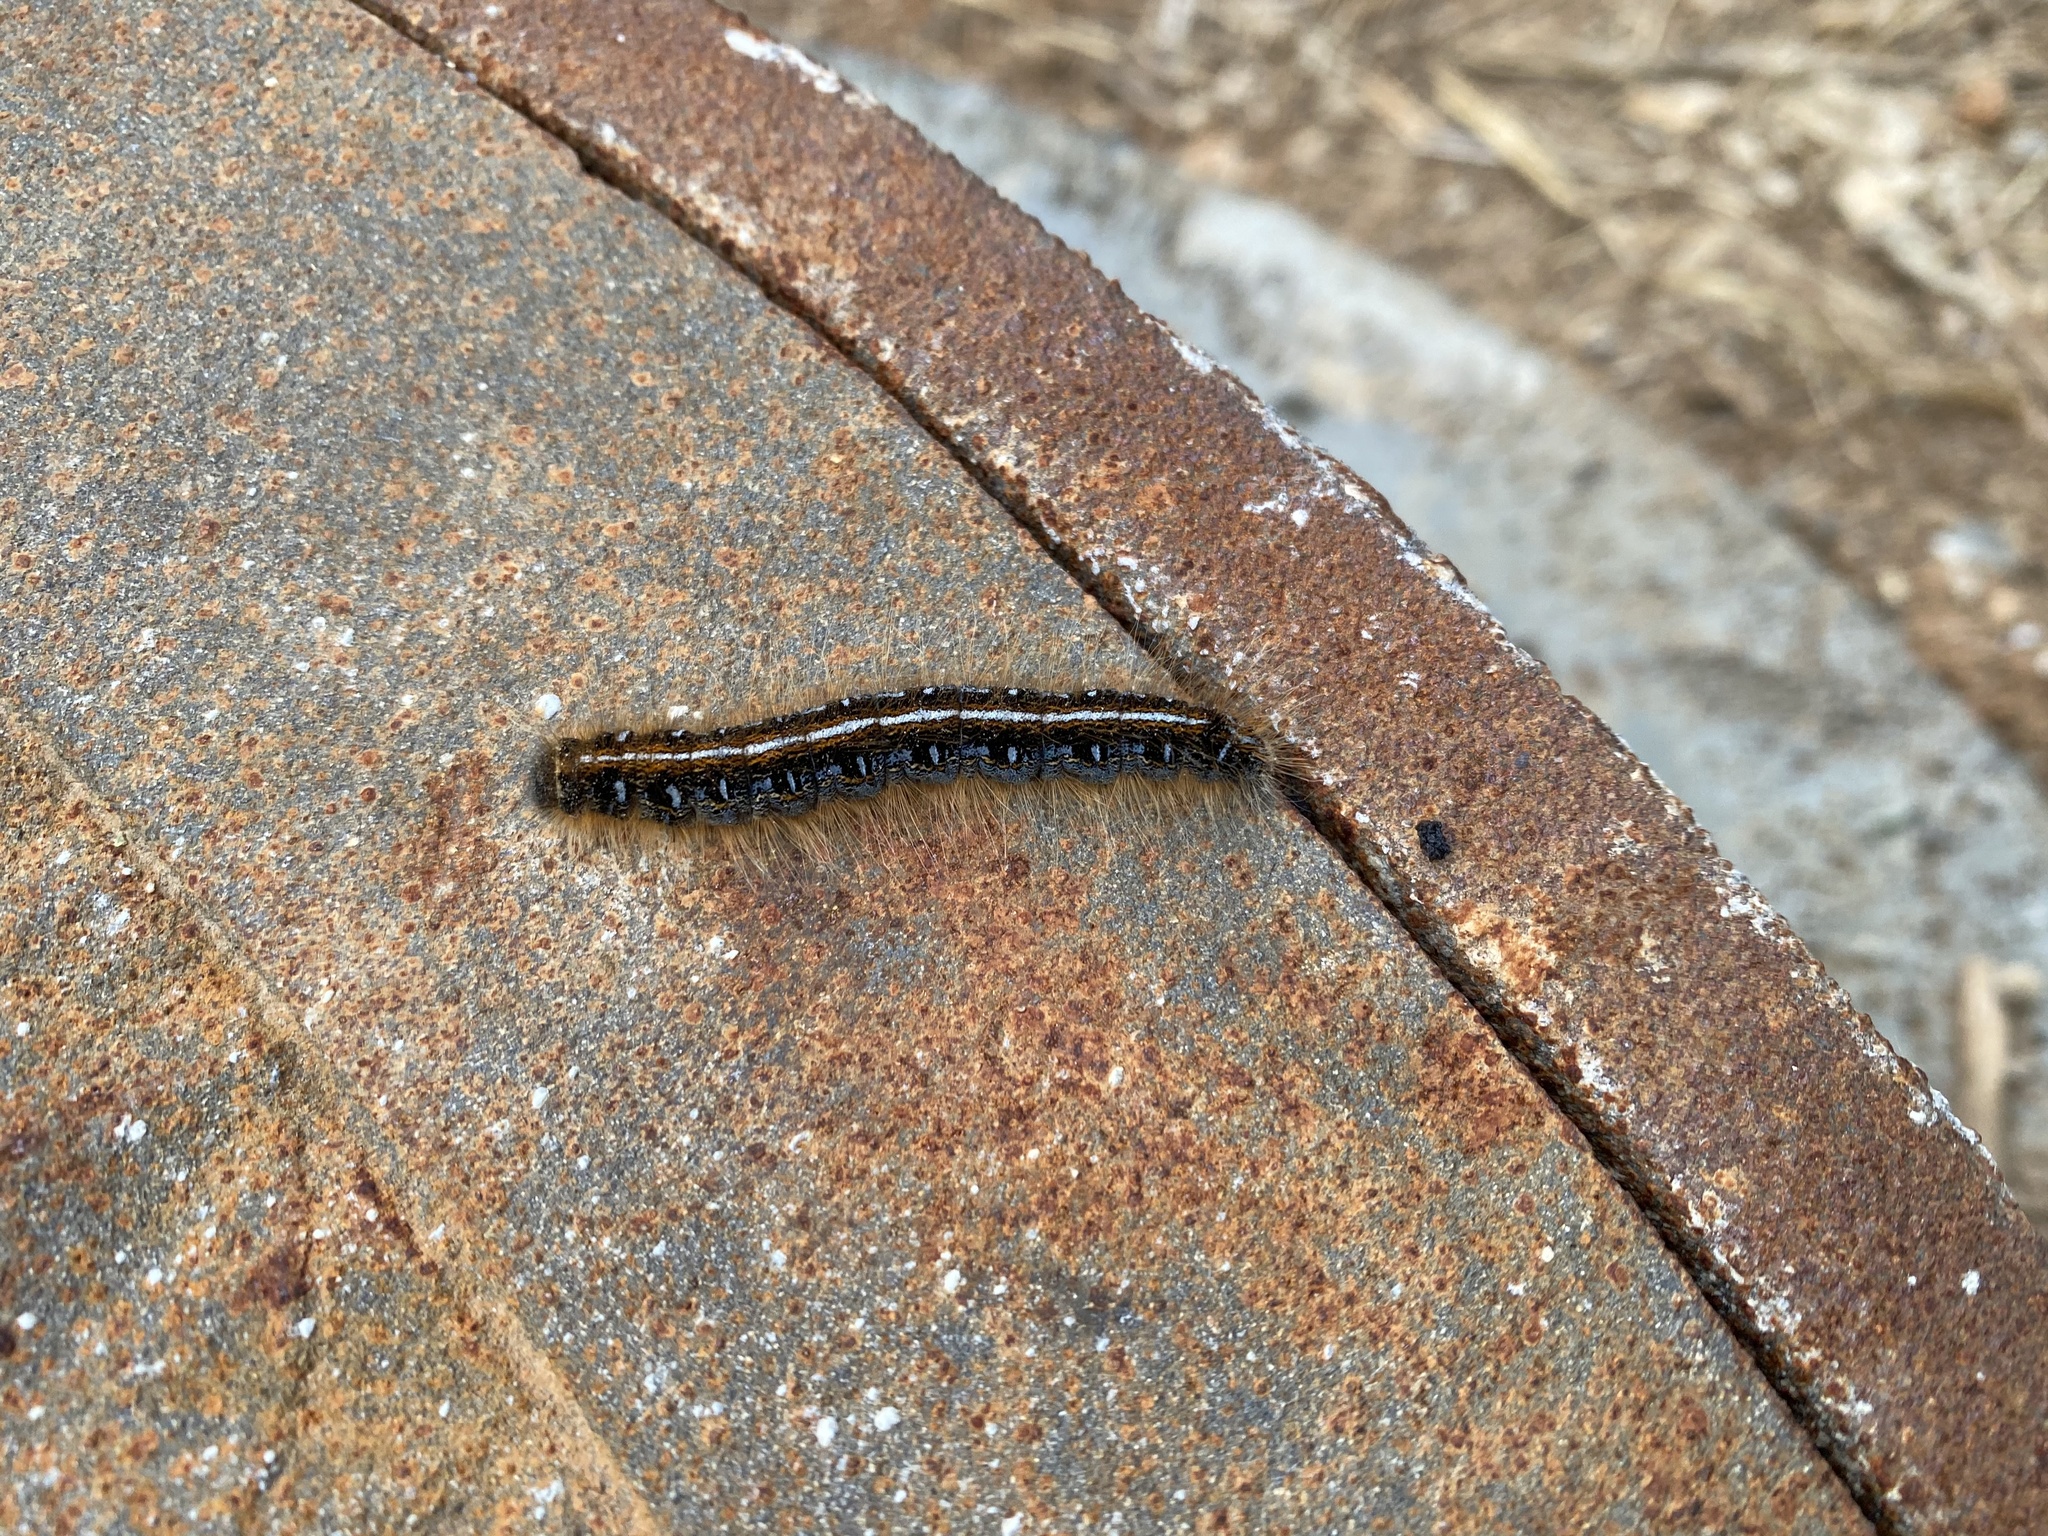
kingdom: Animalia
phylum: Arthropoda
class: Insecta
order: Lepidoptera
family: Lasiocampidae
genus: Malacosoma
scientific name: Malacosoma americana
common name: Eastern tent caterpillar moth
